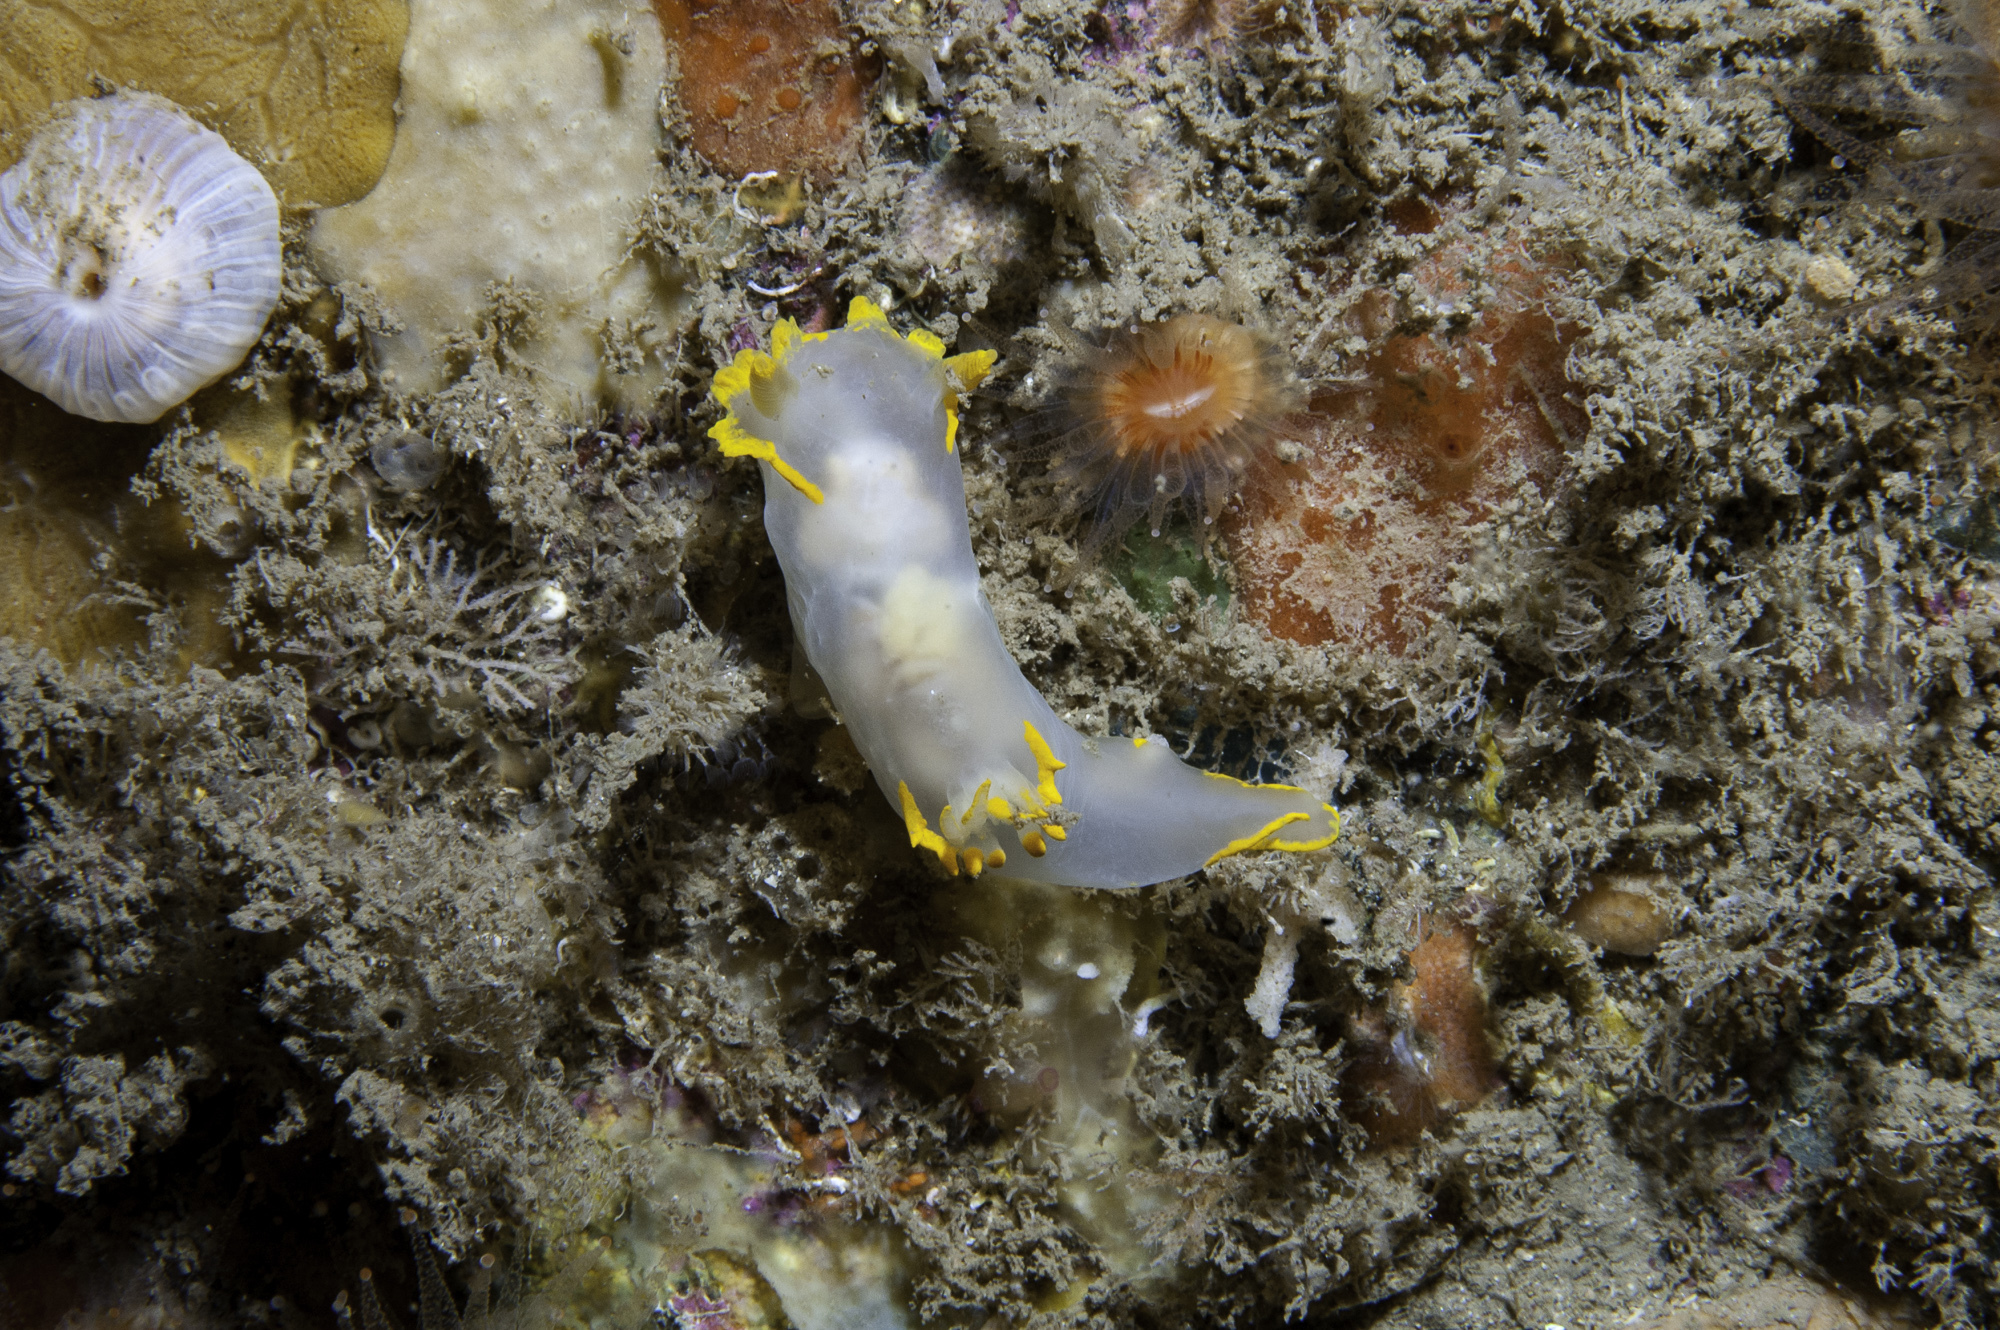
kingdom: Animalia
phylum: Mollusca
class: Gastropoda
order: Nudibranchia
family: Polyceridae
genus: Polycera
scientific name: Polycera faeroensis
